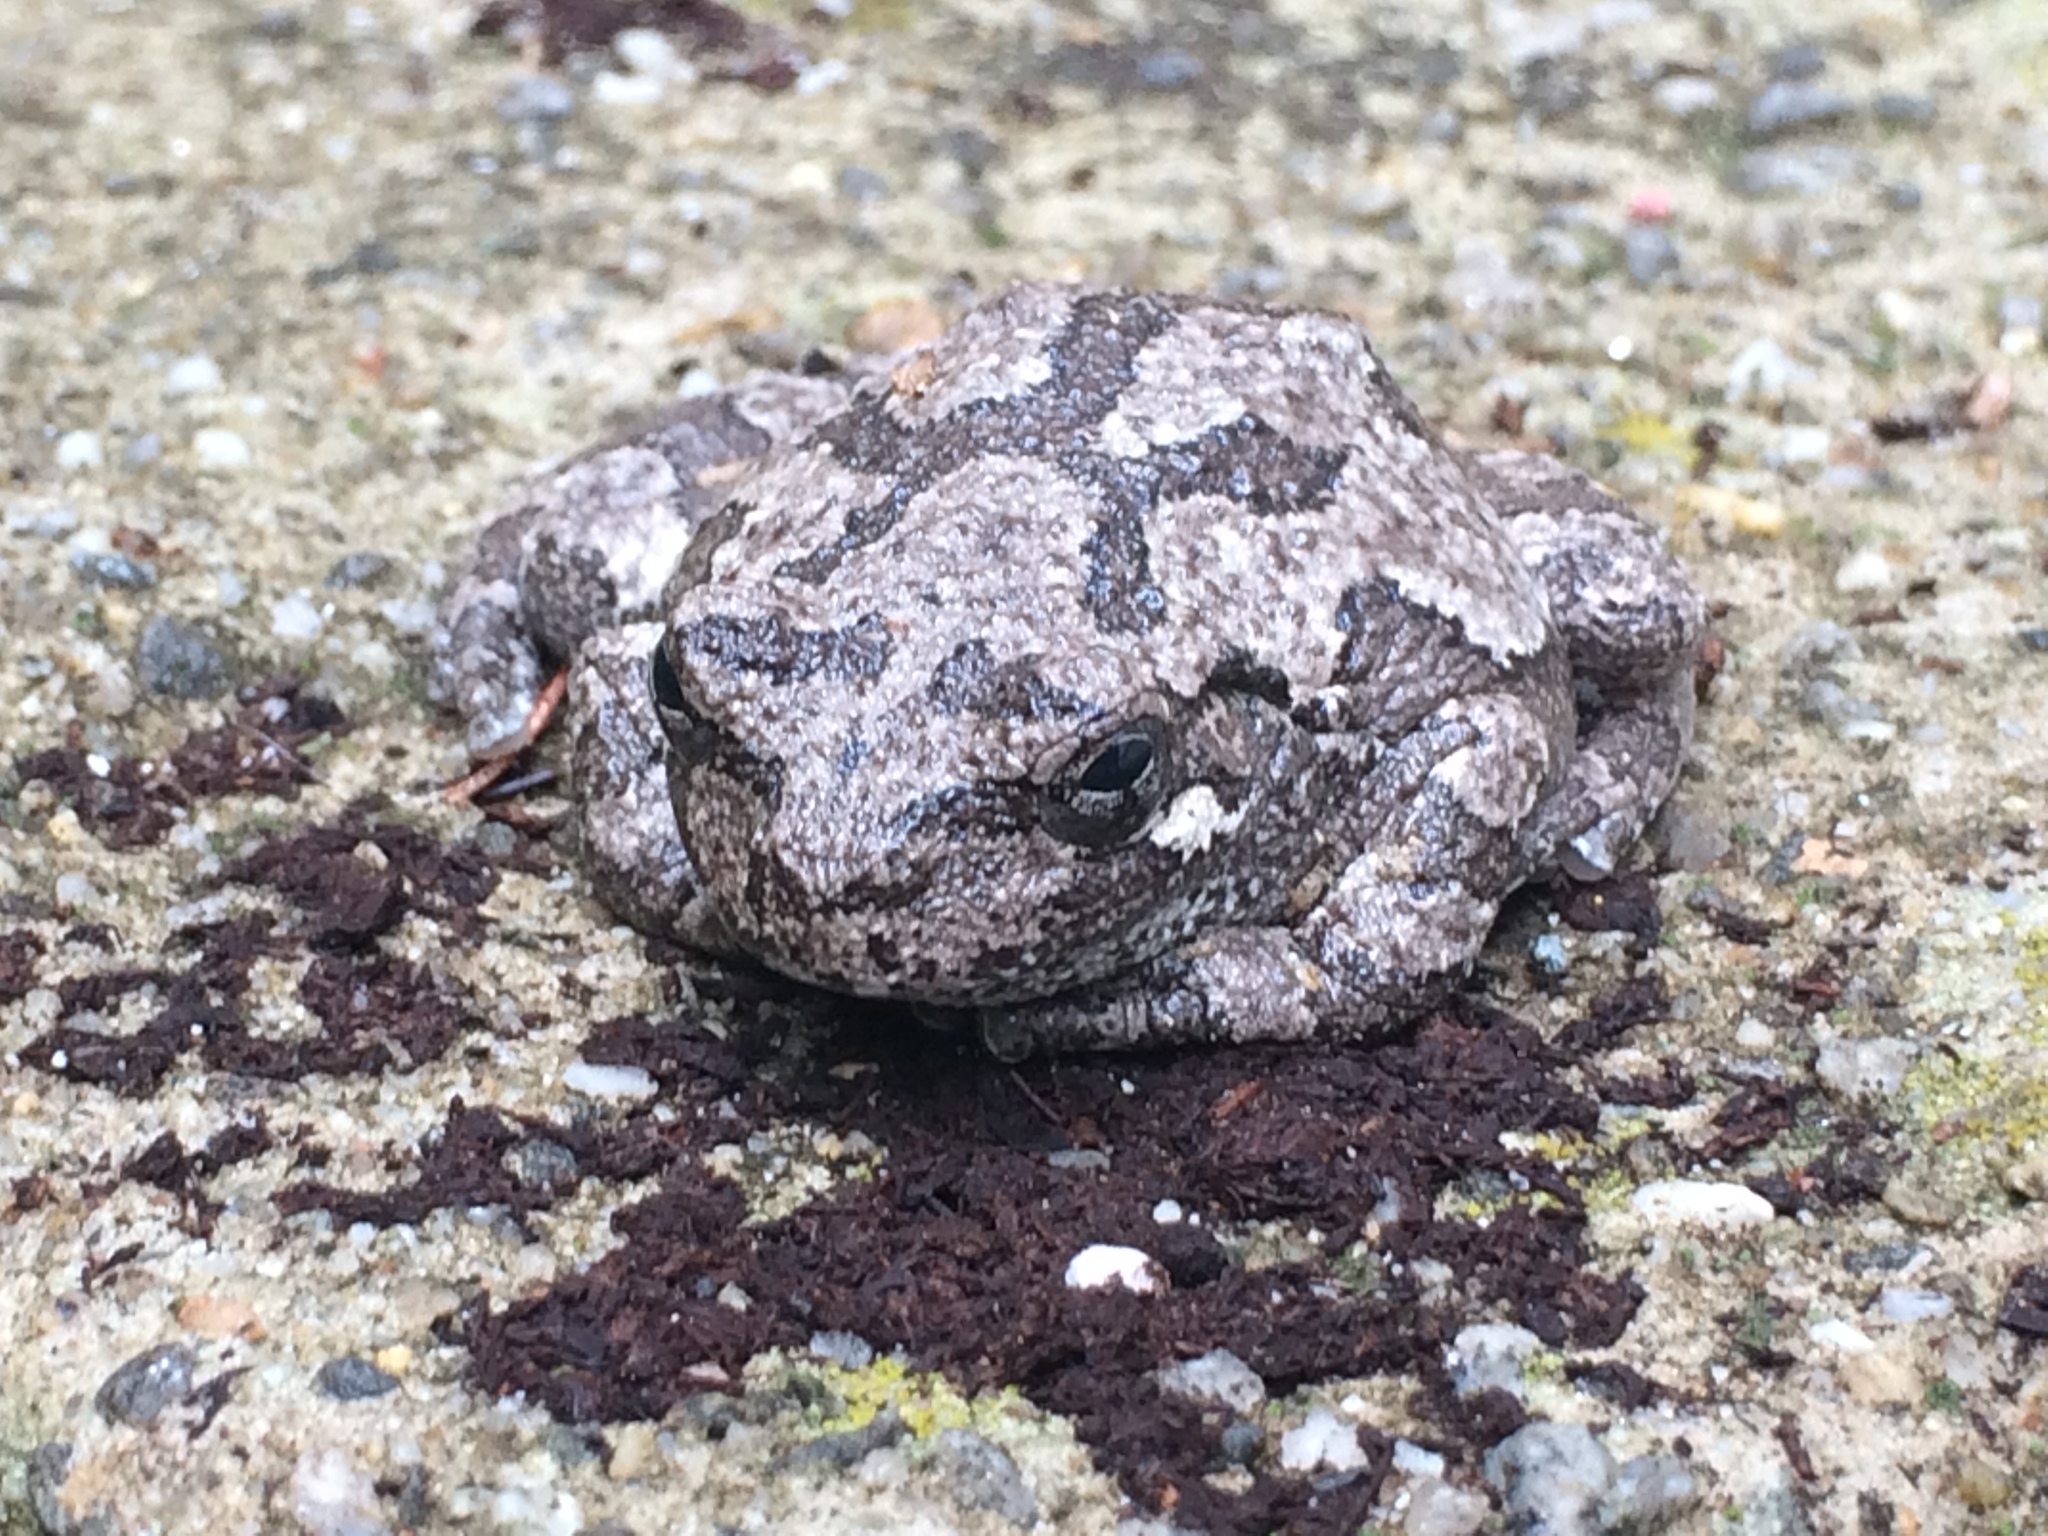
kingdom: Animalia
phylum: Chordata
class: Amphibia
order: Anura
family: Hylidae
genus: Dryophytes
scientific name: Dryophytes versicolor
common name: Gray treefrog
